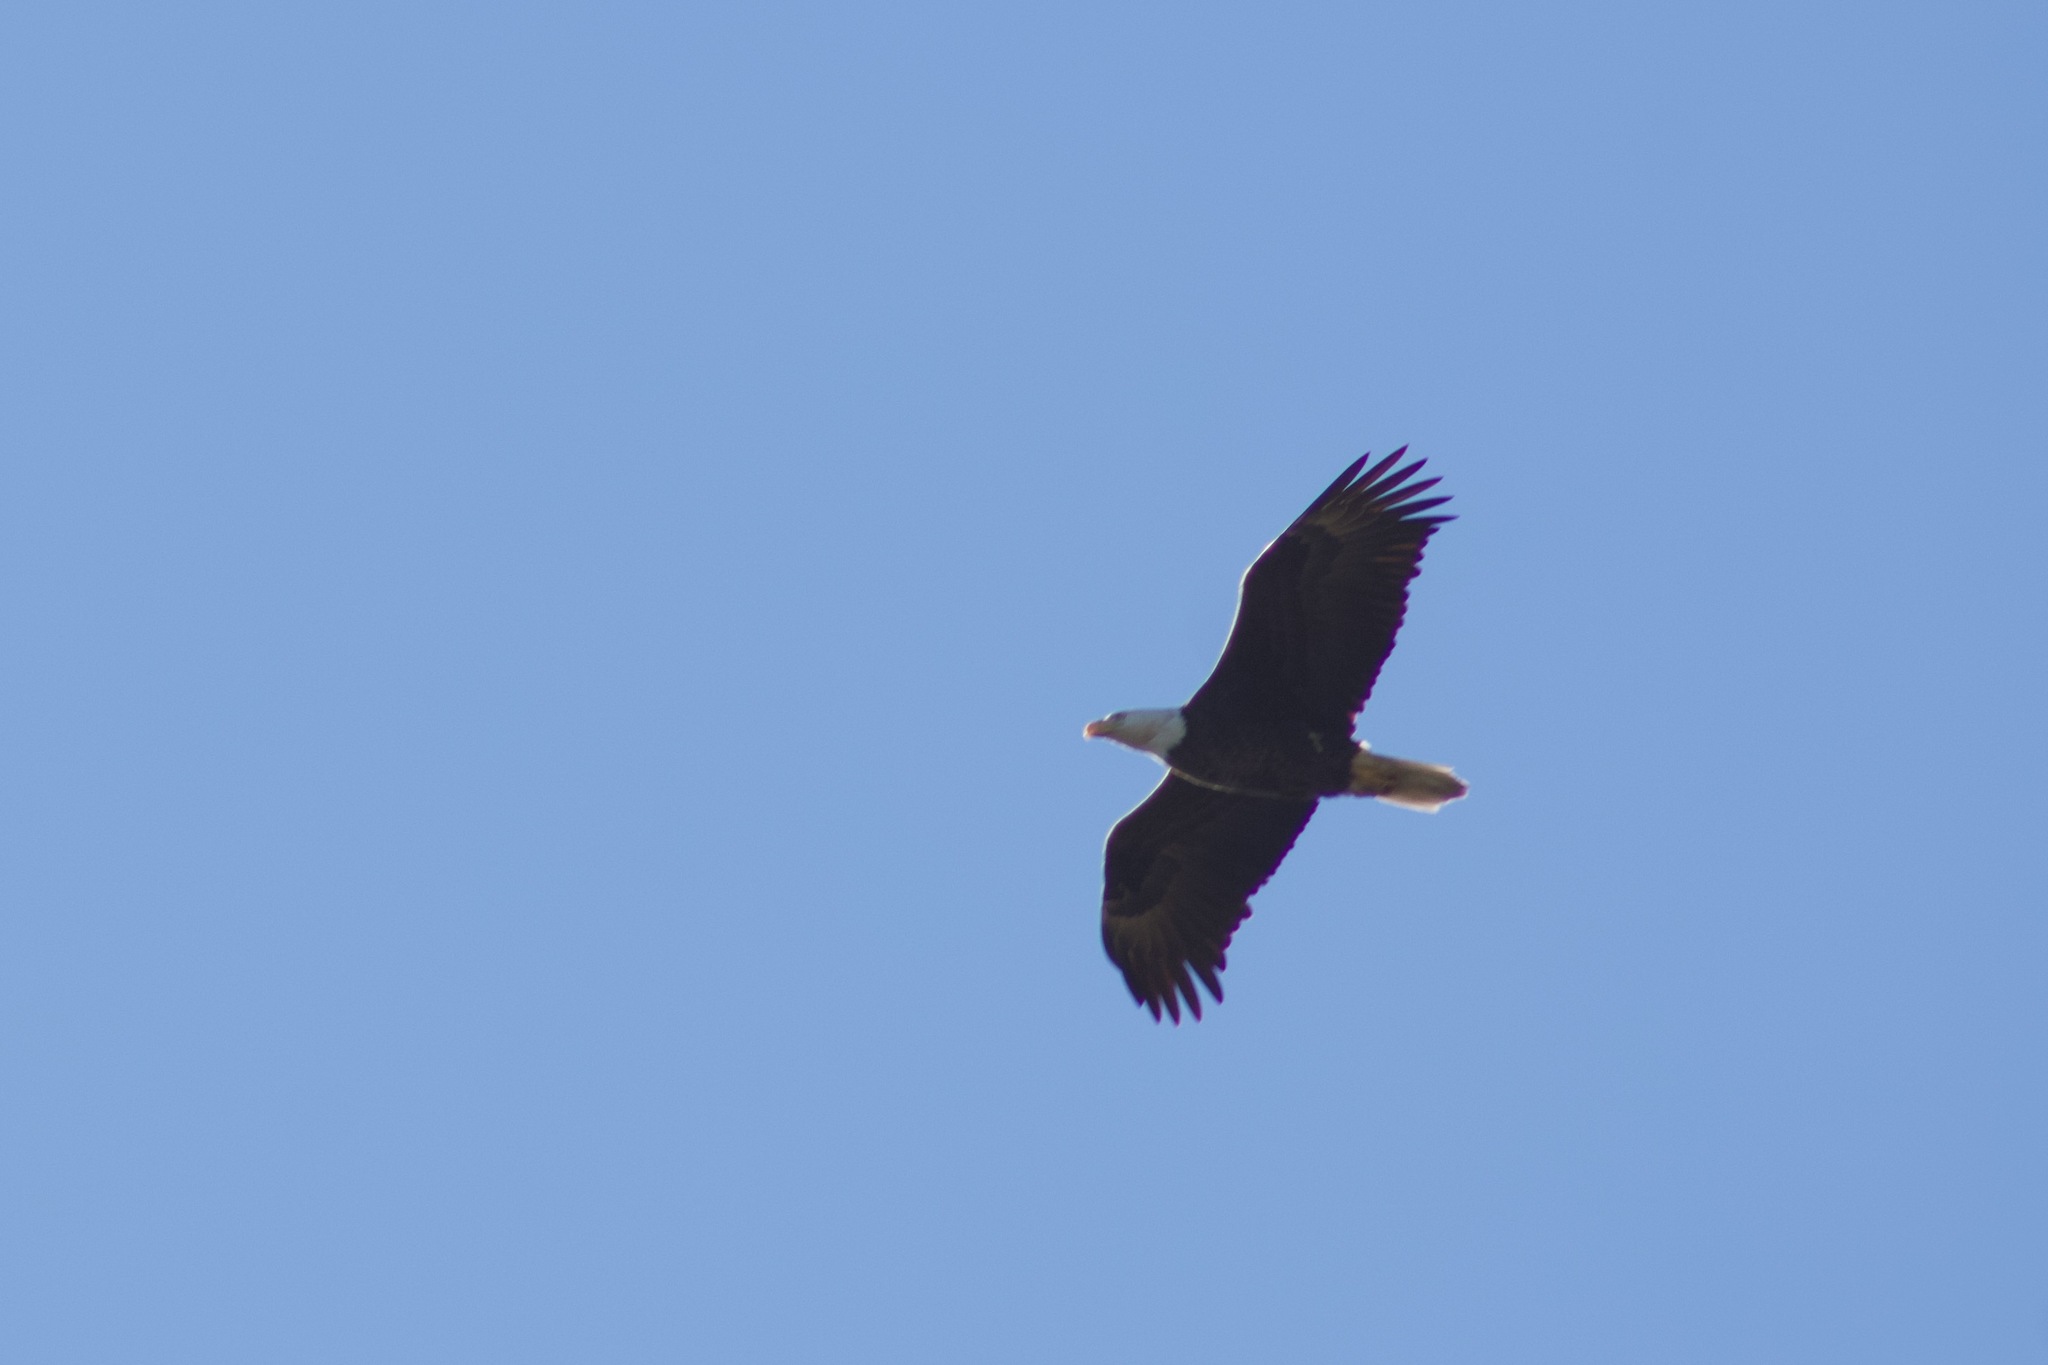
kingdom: Animalia
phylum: Chordata
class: Aves
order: Accipitriformes
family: Accipitridae
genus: Haliaeetus
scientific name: Haliaeetus leucocephalus
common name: Bald eagle
